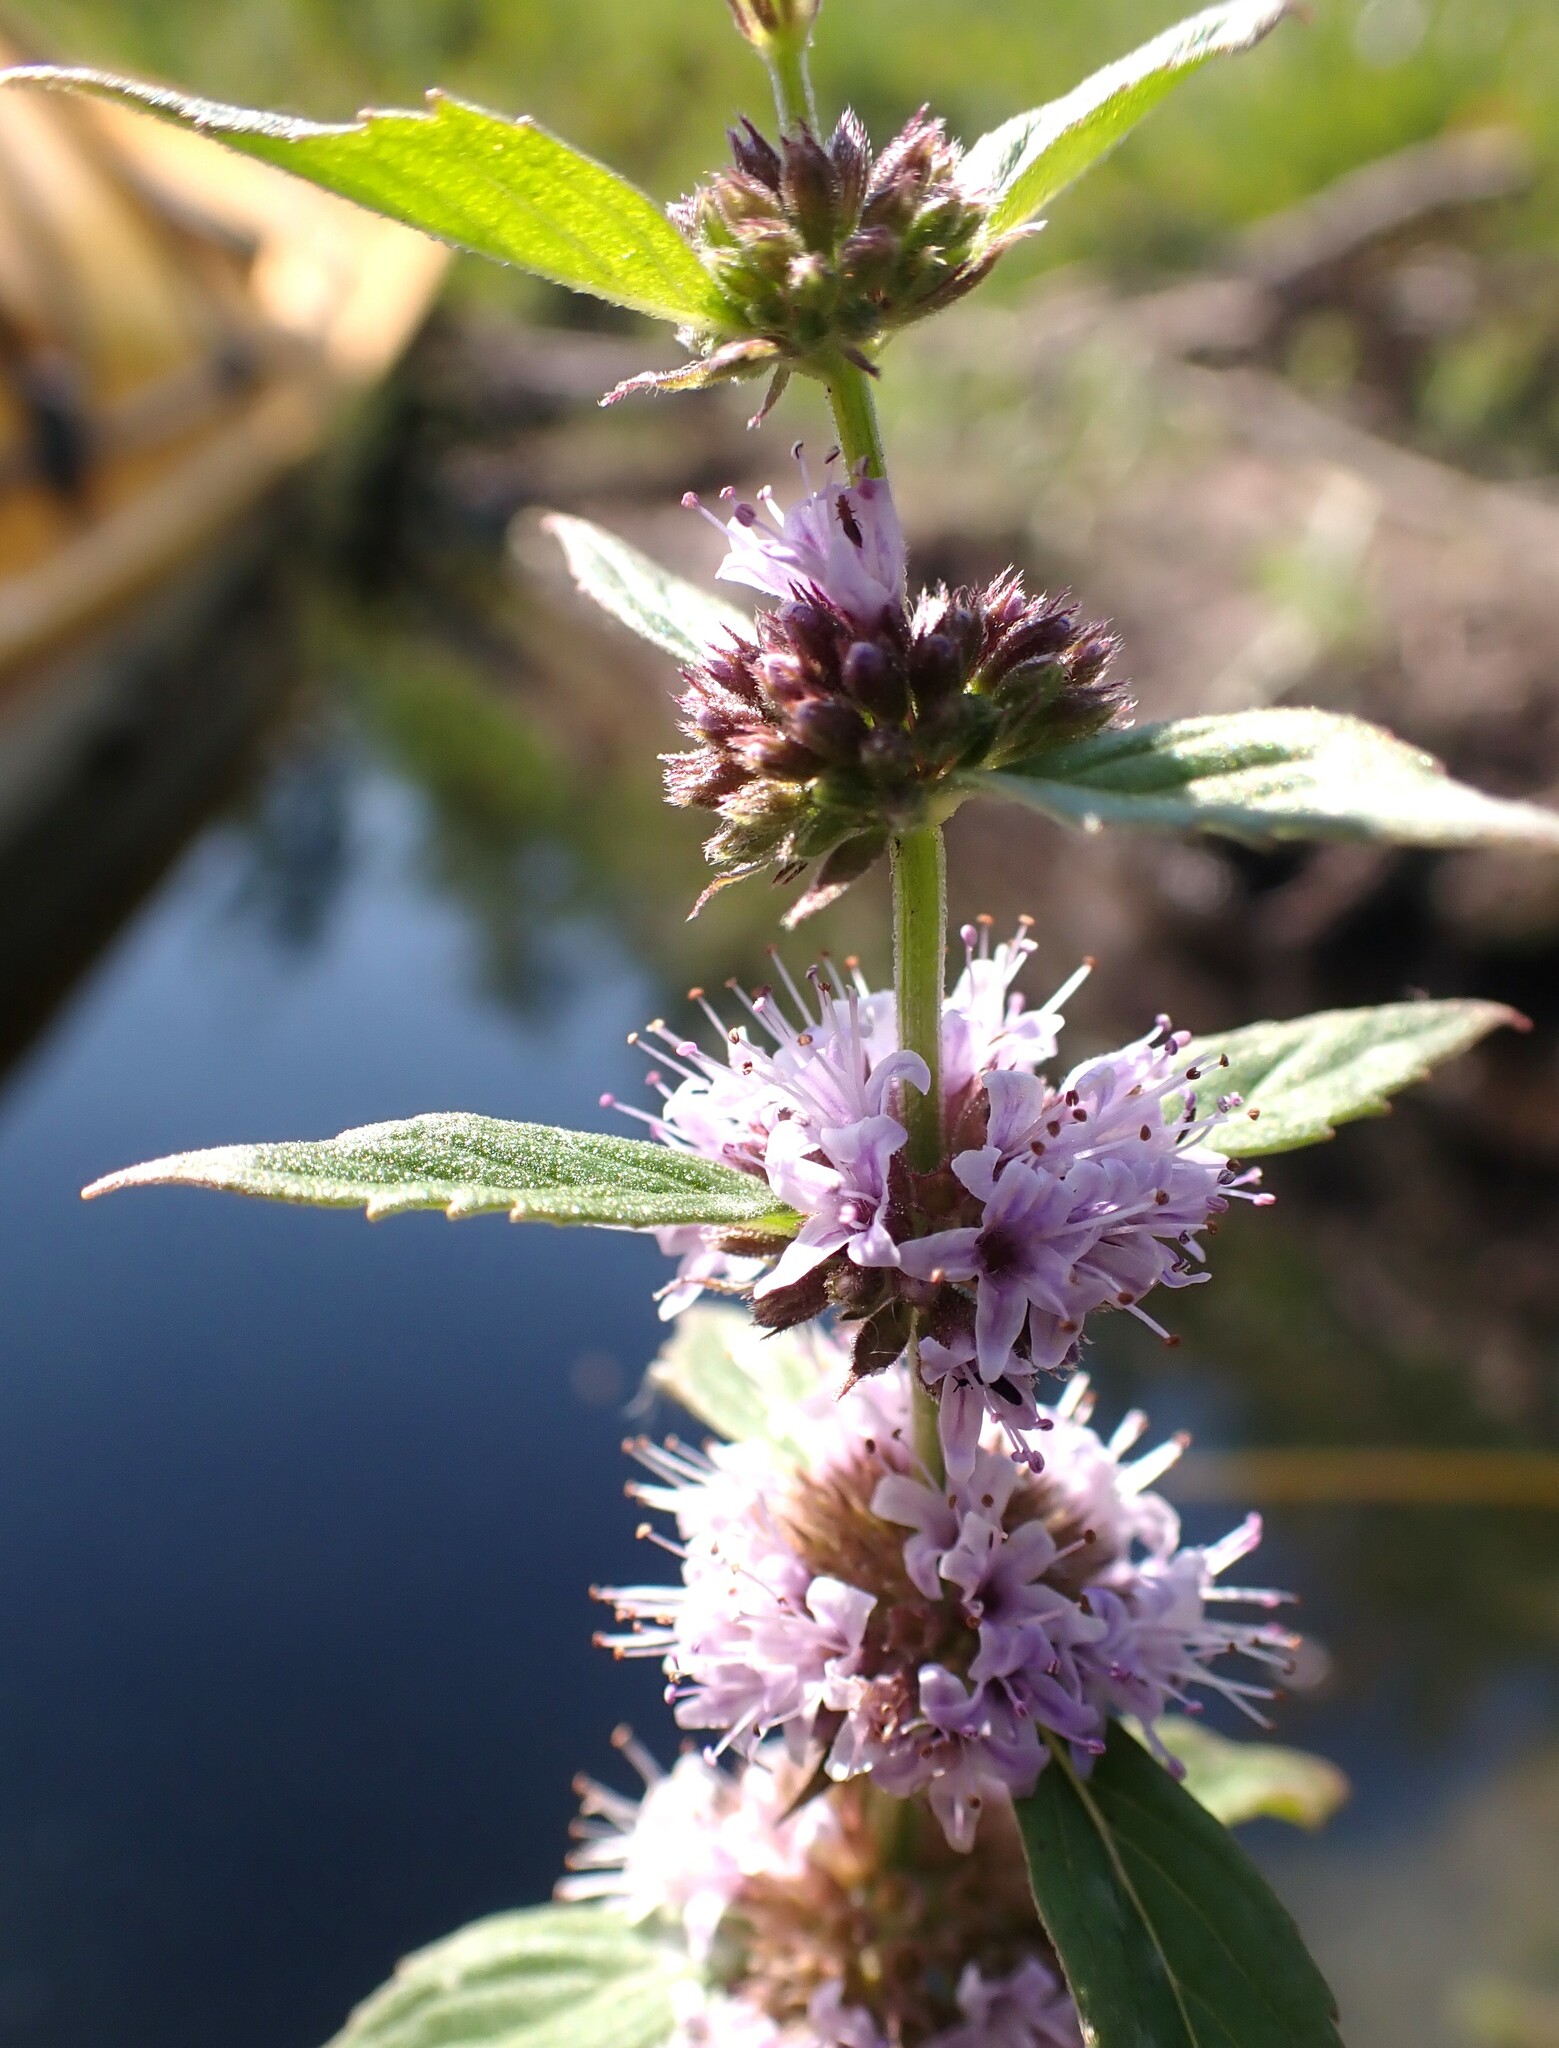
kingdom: Plantae
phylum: Tracheophyta
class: Magnoliopsida
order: Lamiales
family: Lamiaceae
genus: Mentha
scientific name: Mentha canadensis
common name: American corn mint
